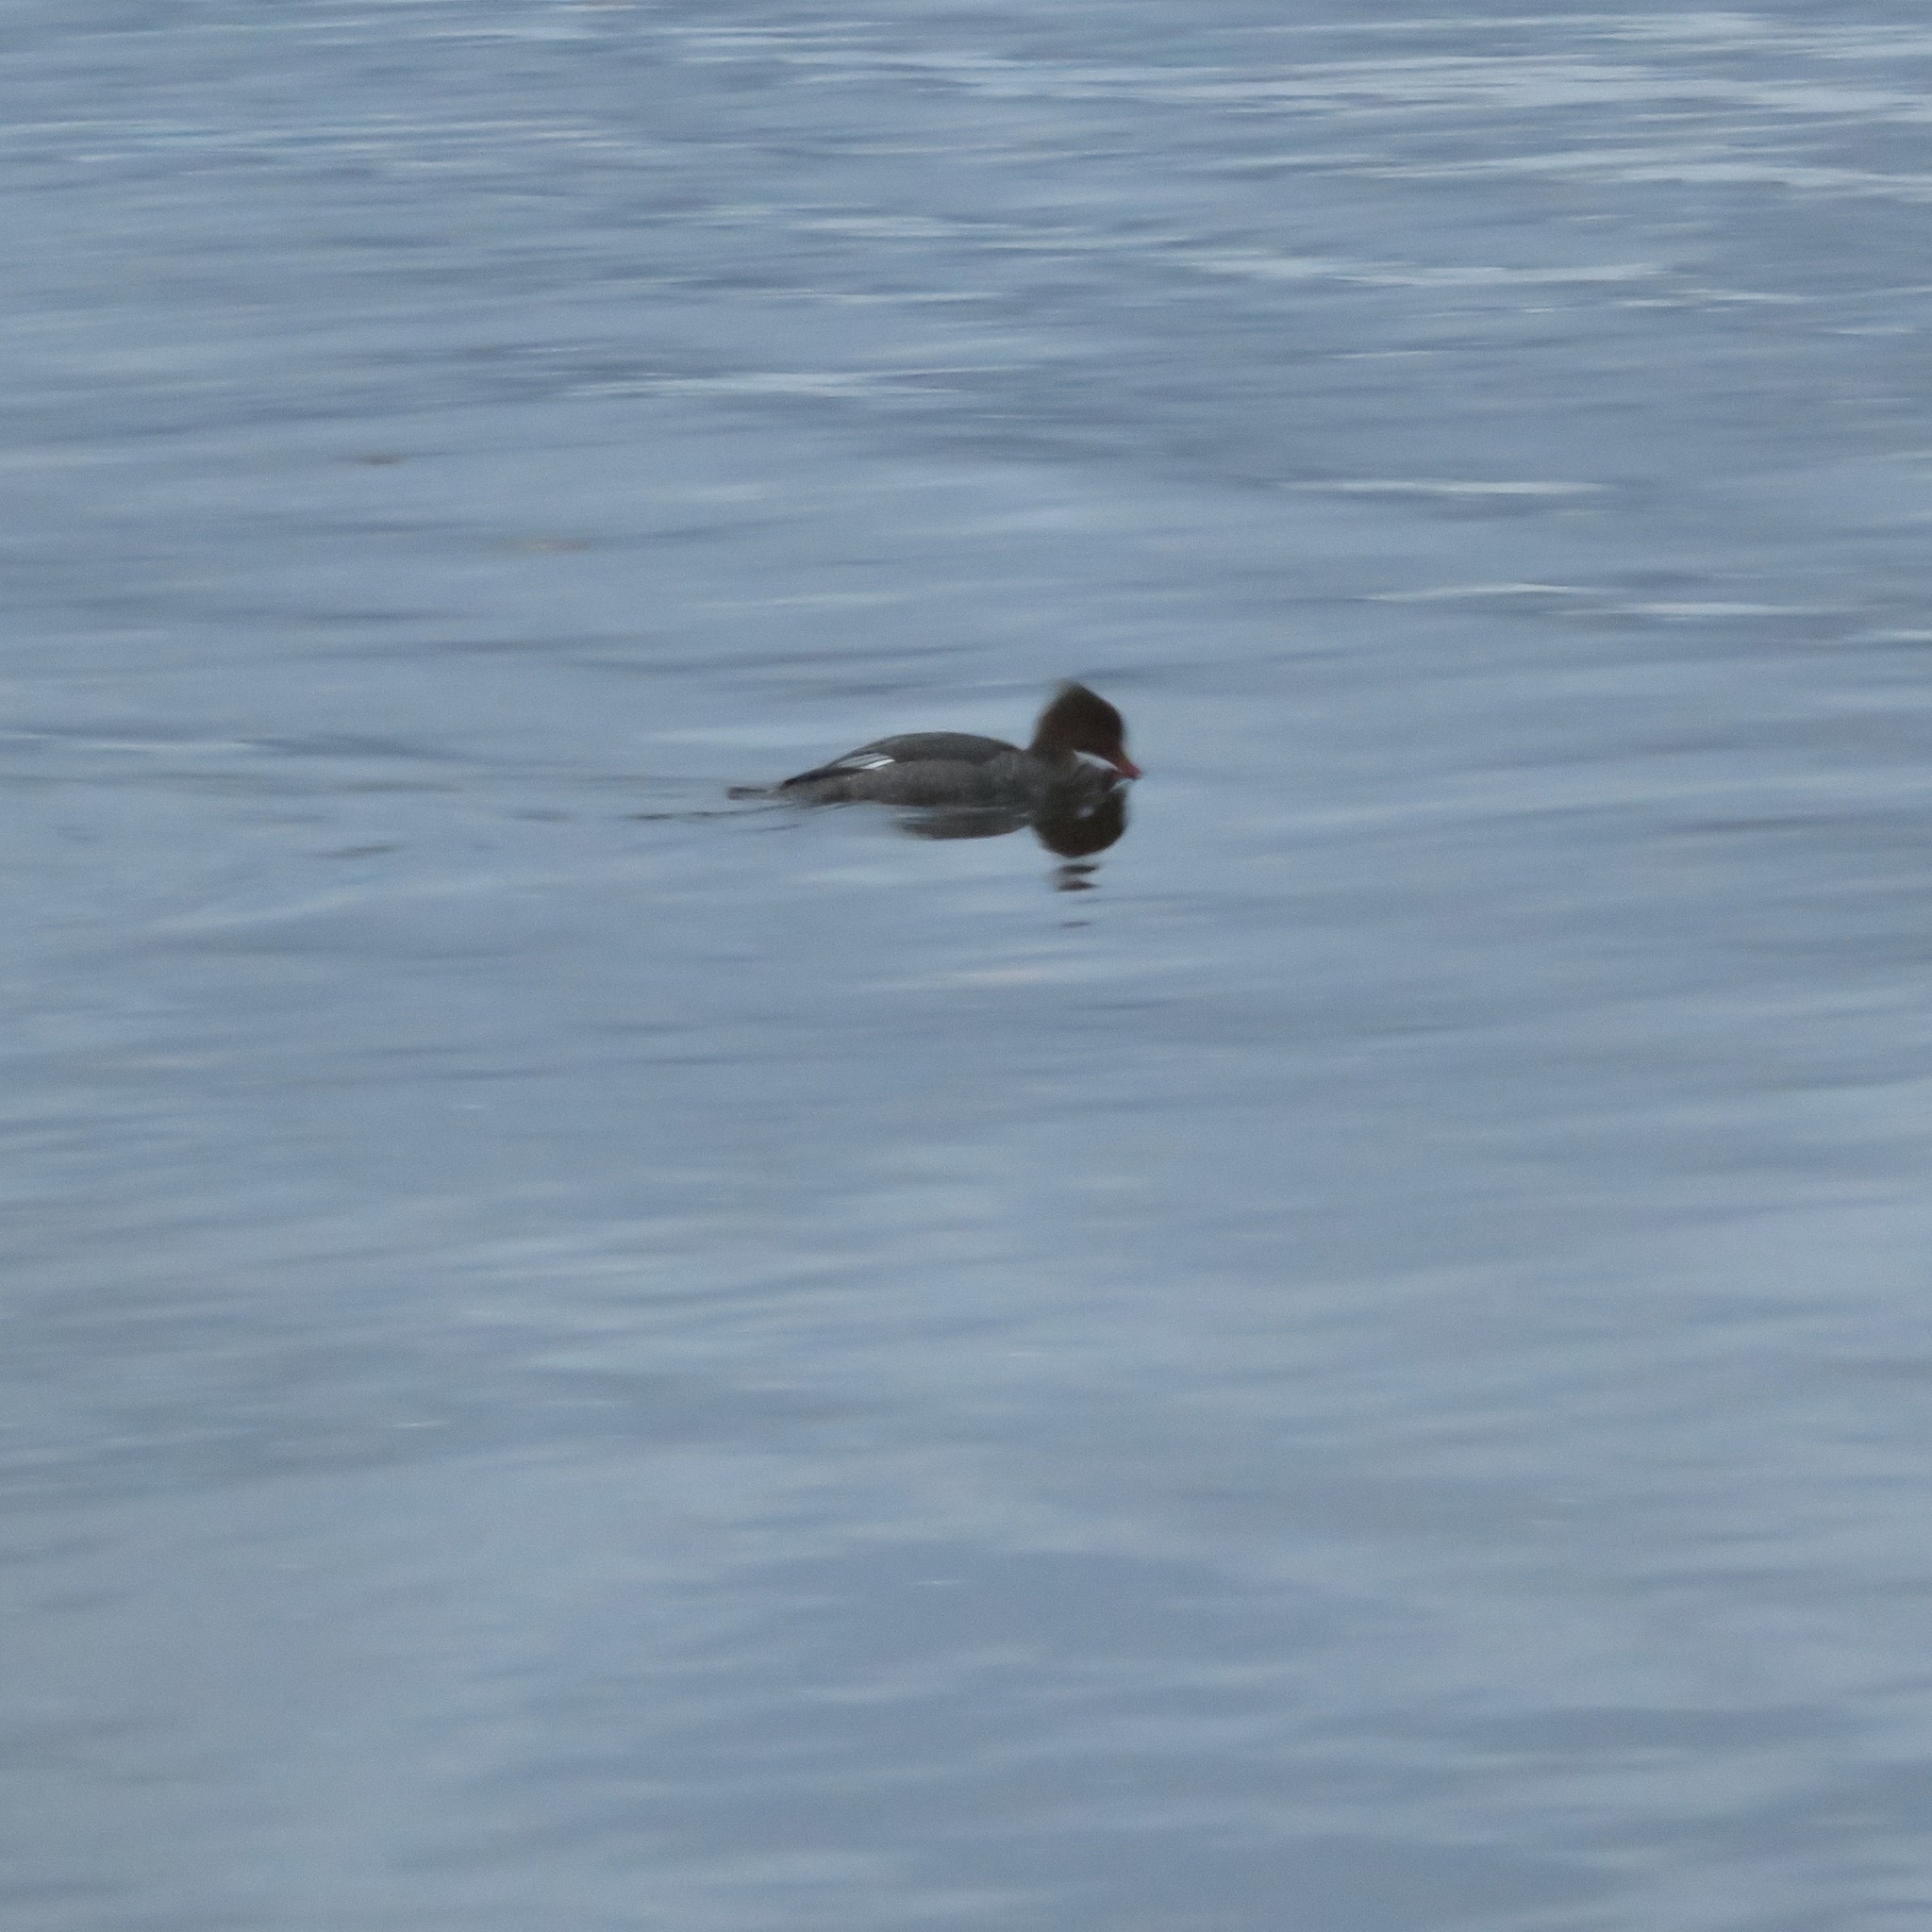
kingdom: Animalia
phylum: Chordata
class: Aves
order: Anseriformes
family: Anatidae
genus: Mergus
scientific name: Mergus serrator
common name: Red-breasted merganser
